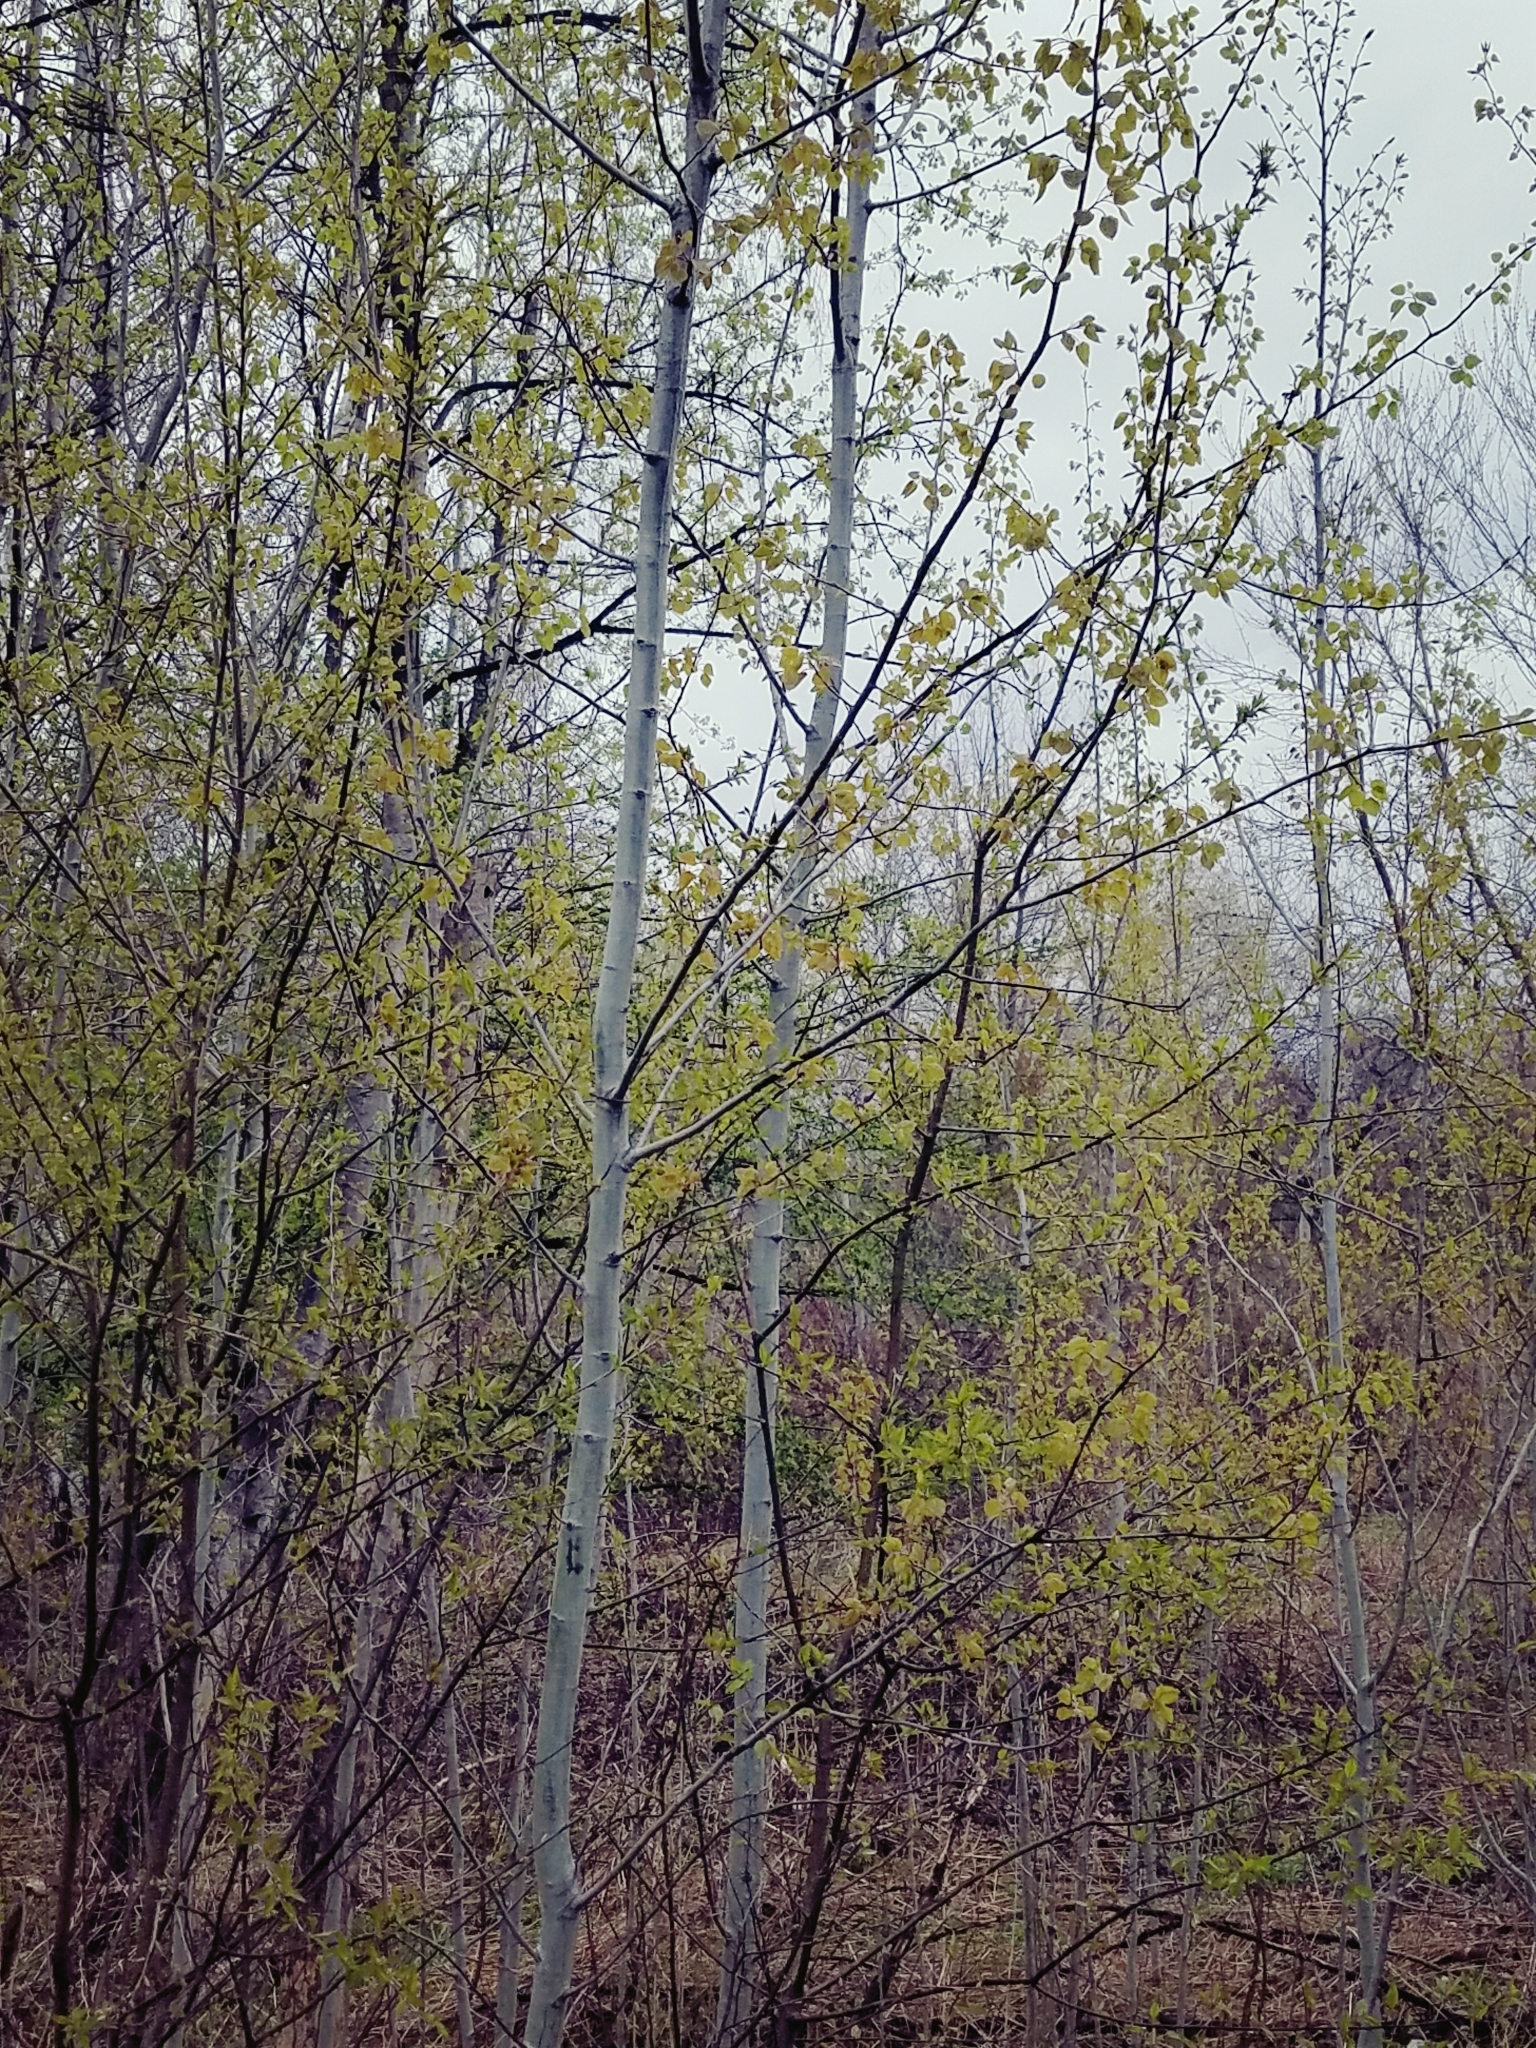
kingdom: Plantae
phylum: Tracheophyta
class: Magnoliopsida
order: Malpighiales
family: Salicaceae
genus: Populus
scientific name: Populus tremuloides
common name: Quaking aspen
